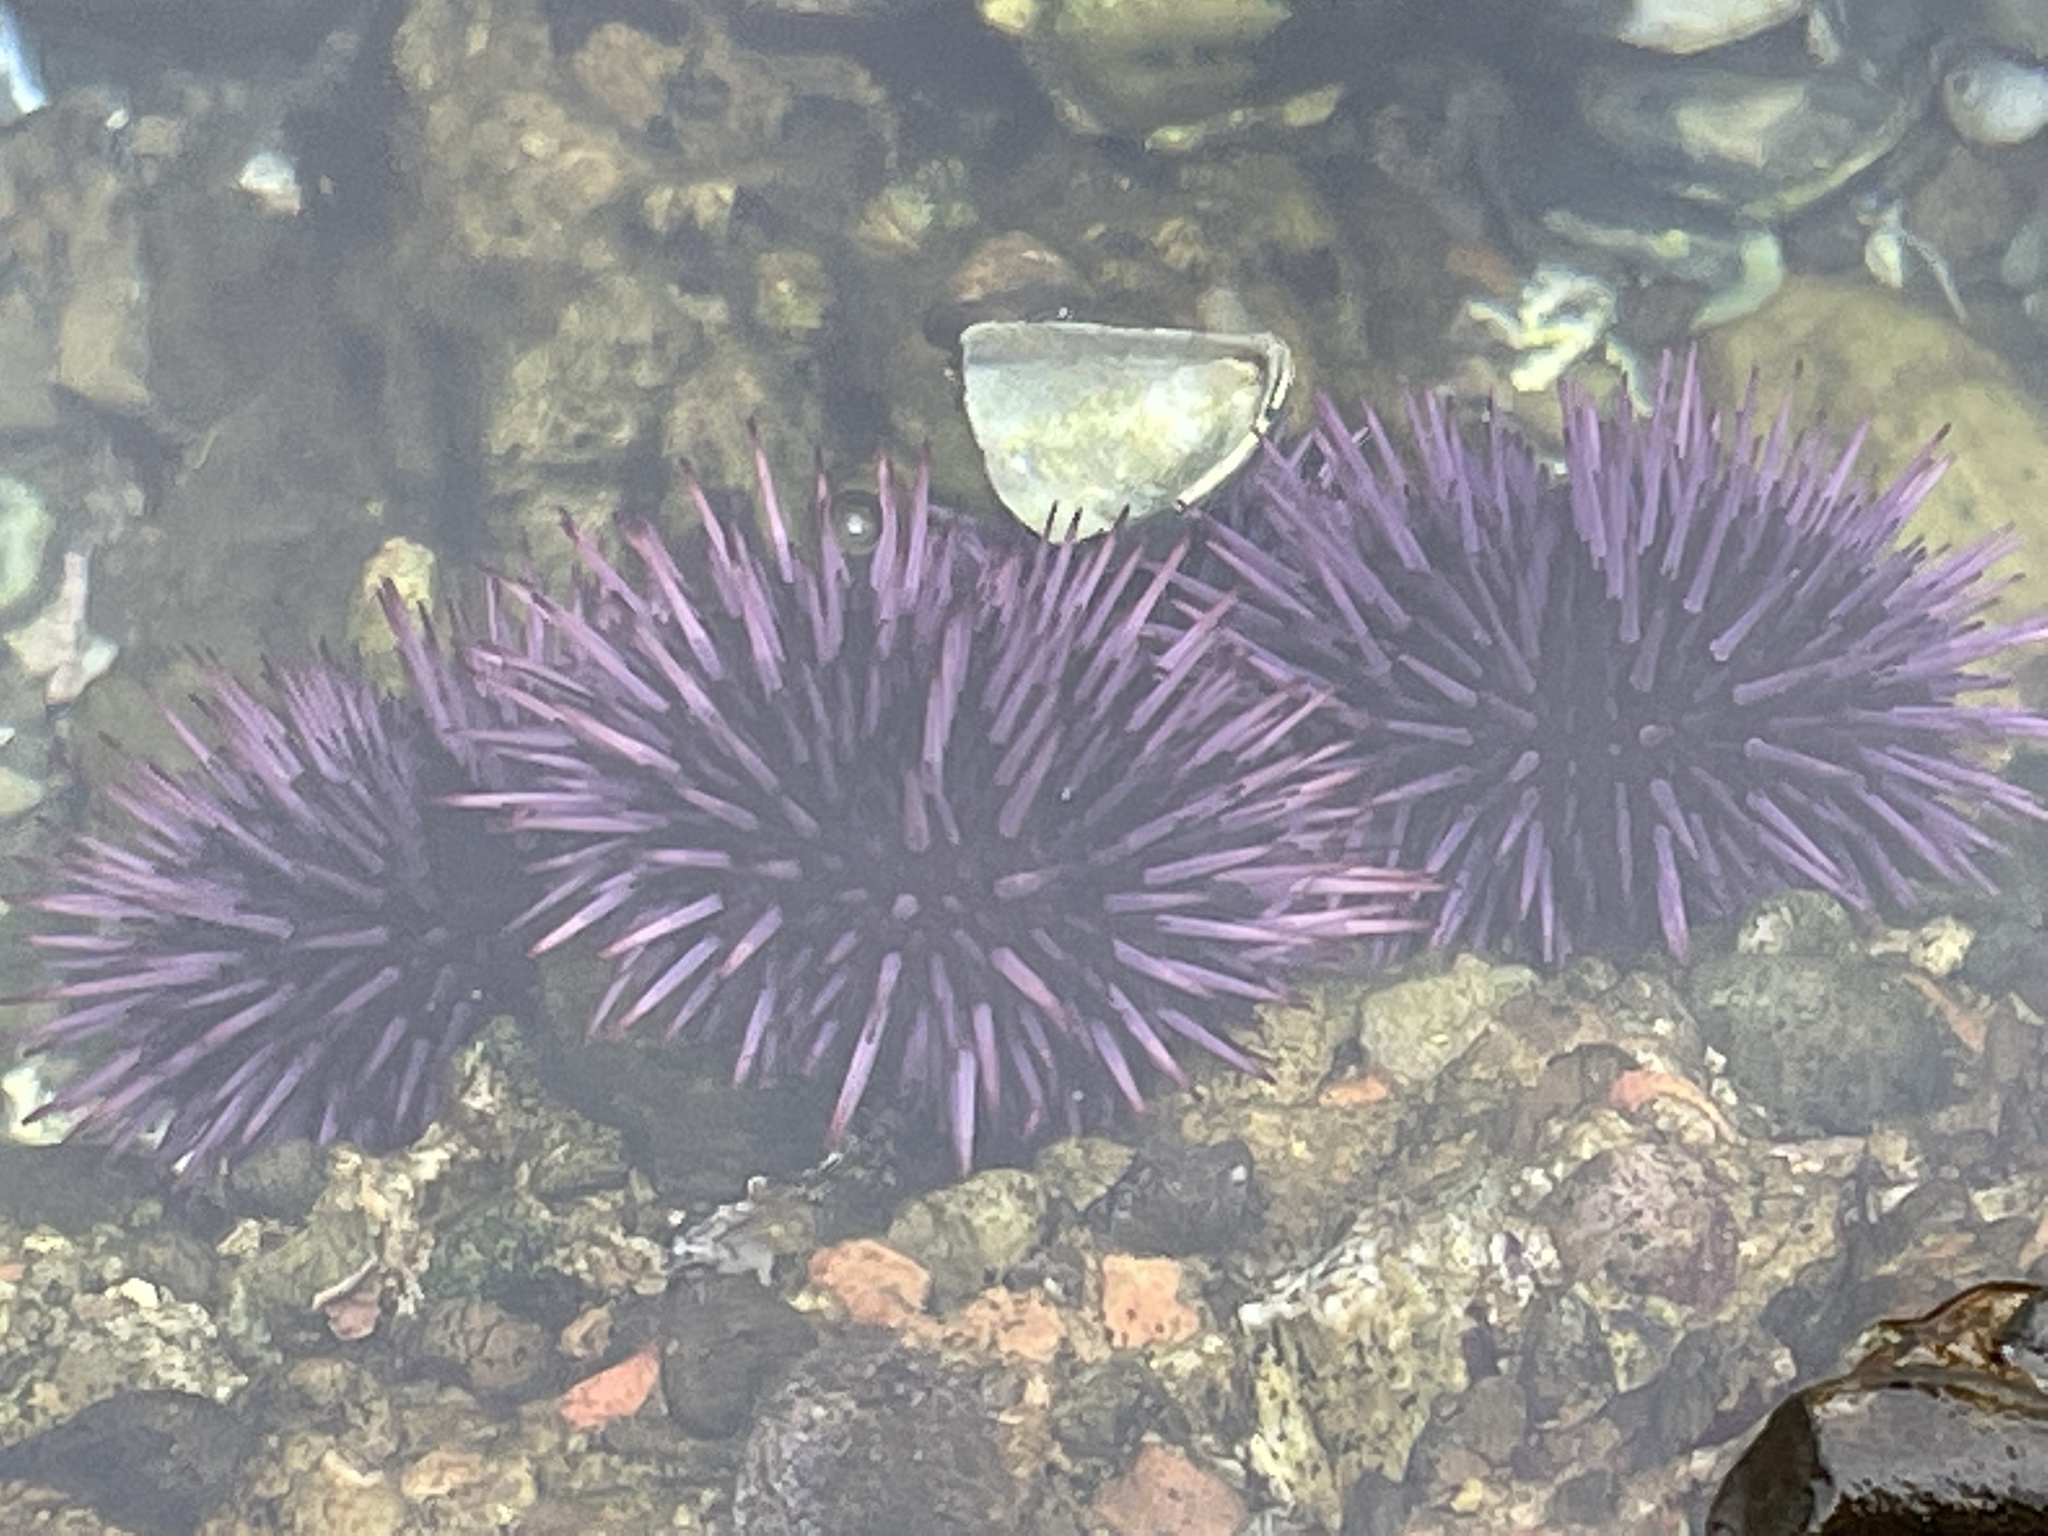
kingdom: Animalia
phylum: Echinodermata
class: Echinoidea
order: Camarodonta
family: Strongylocentrotidae
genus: Strongylocentrotus
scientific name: Strongylocentrotus purpuratus
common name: Purple sea urchin
